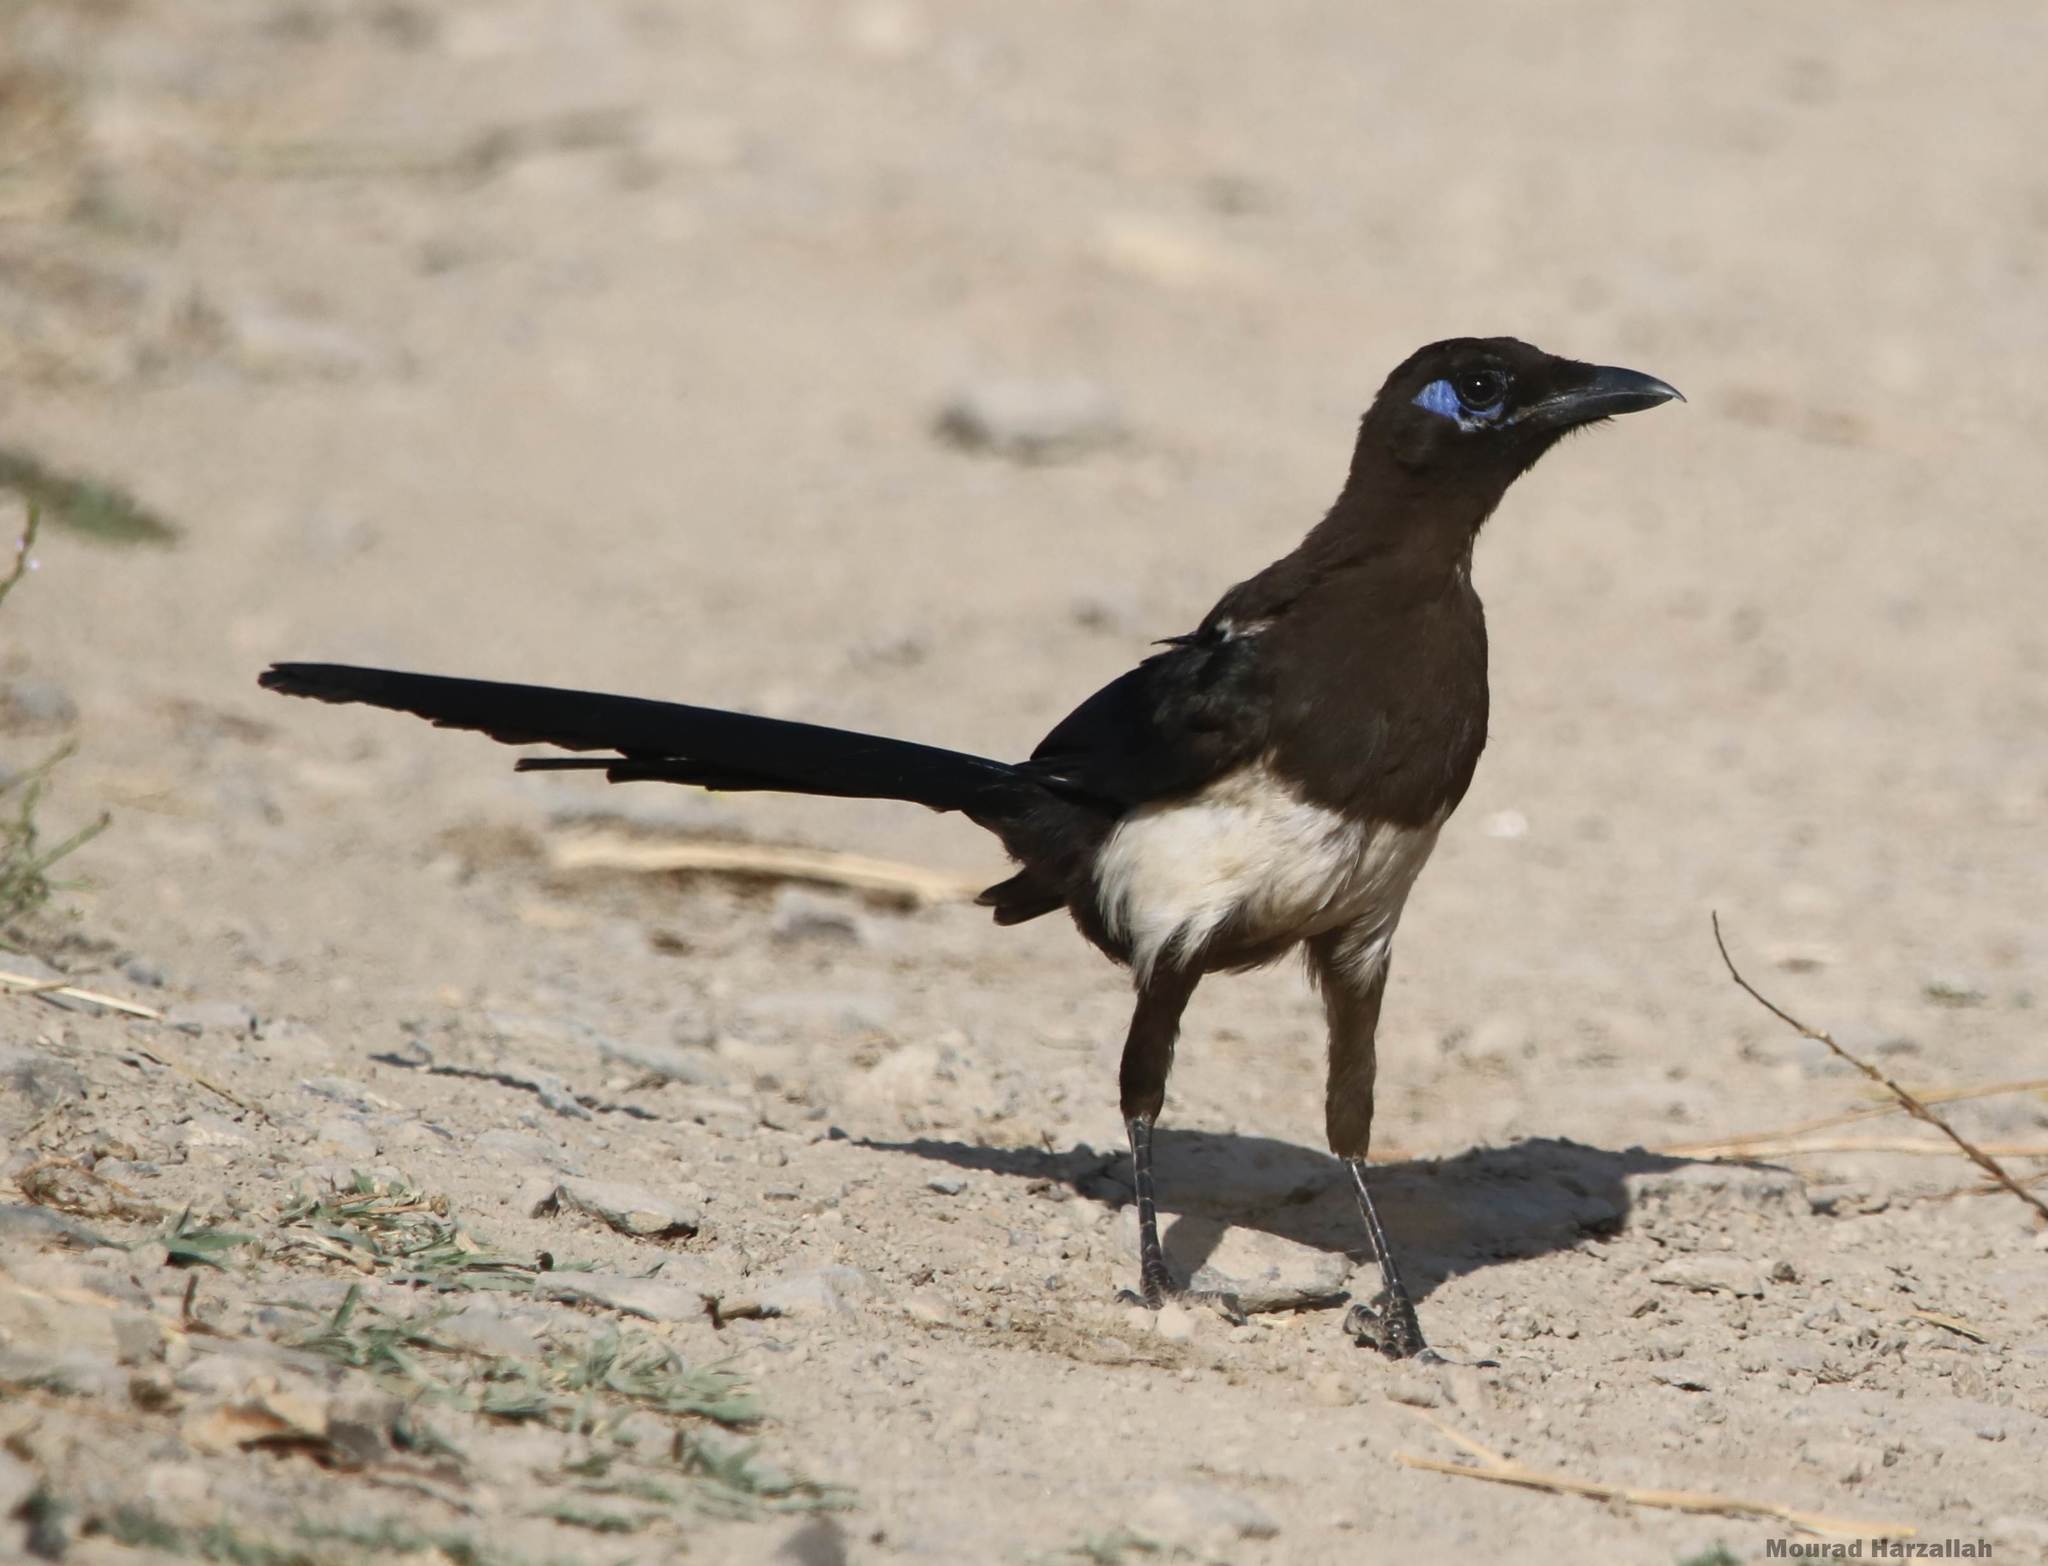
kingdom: Animalia
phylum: Chordata
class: Aves
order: Passeriformes
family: Corvidae
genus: Pica
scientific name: Pica mauritanica
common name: Maghreb magpie
